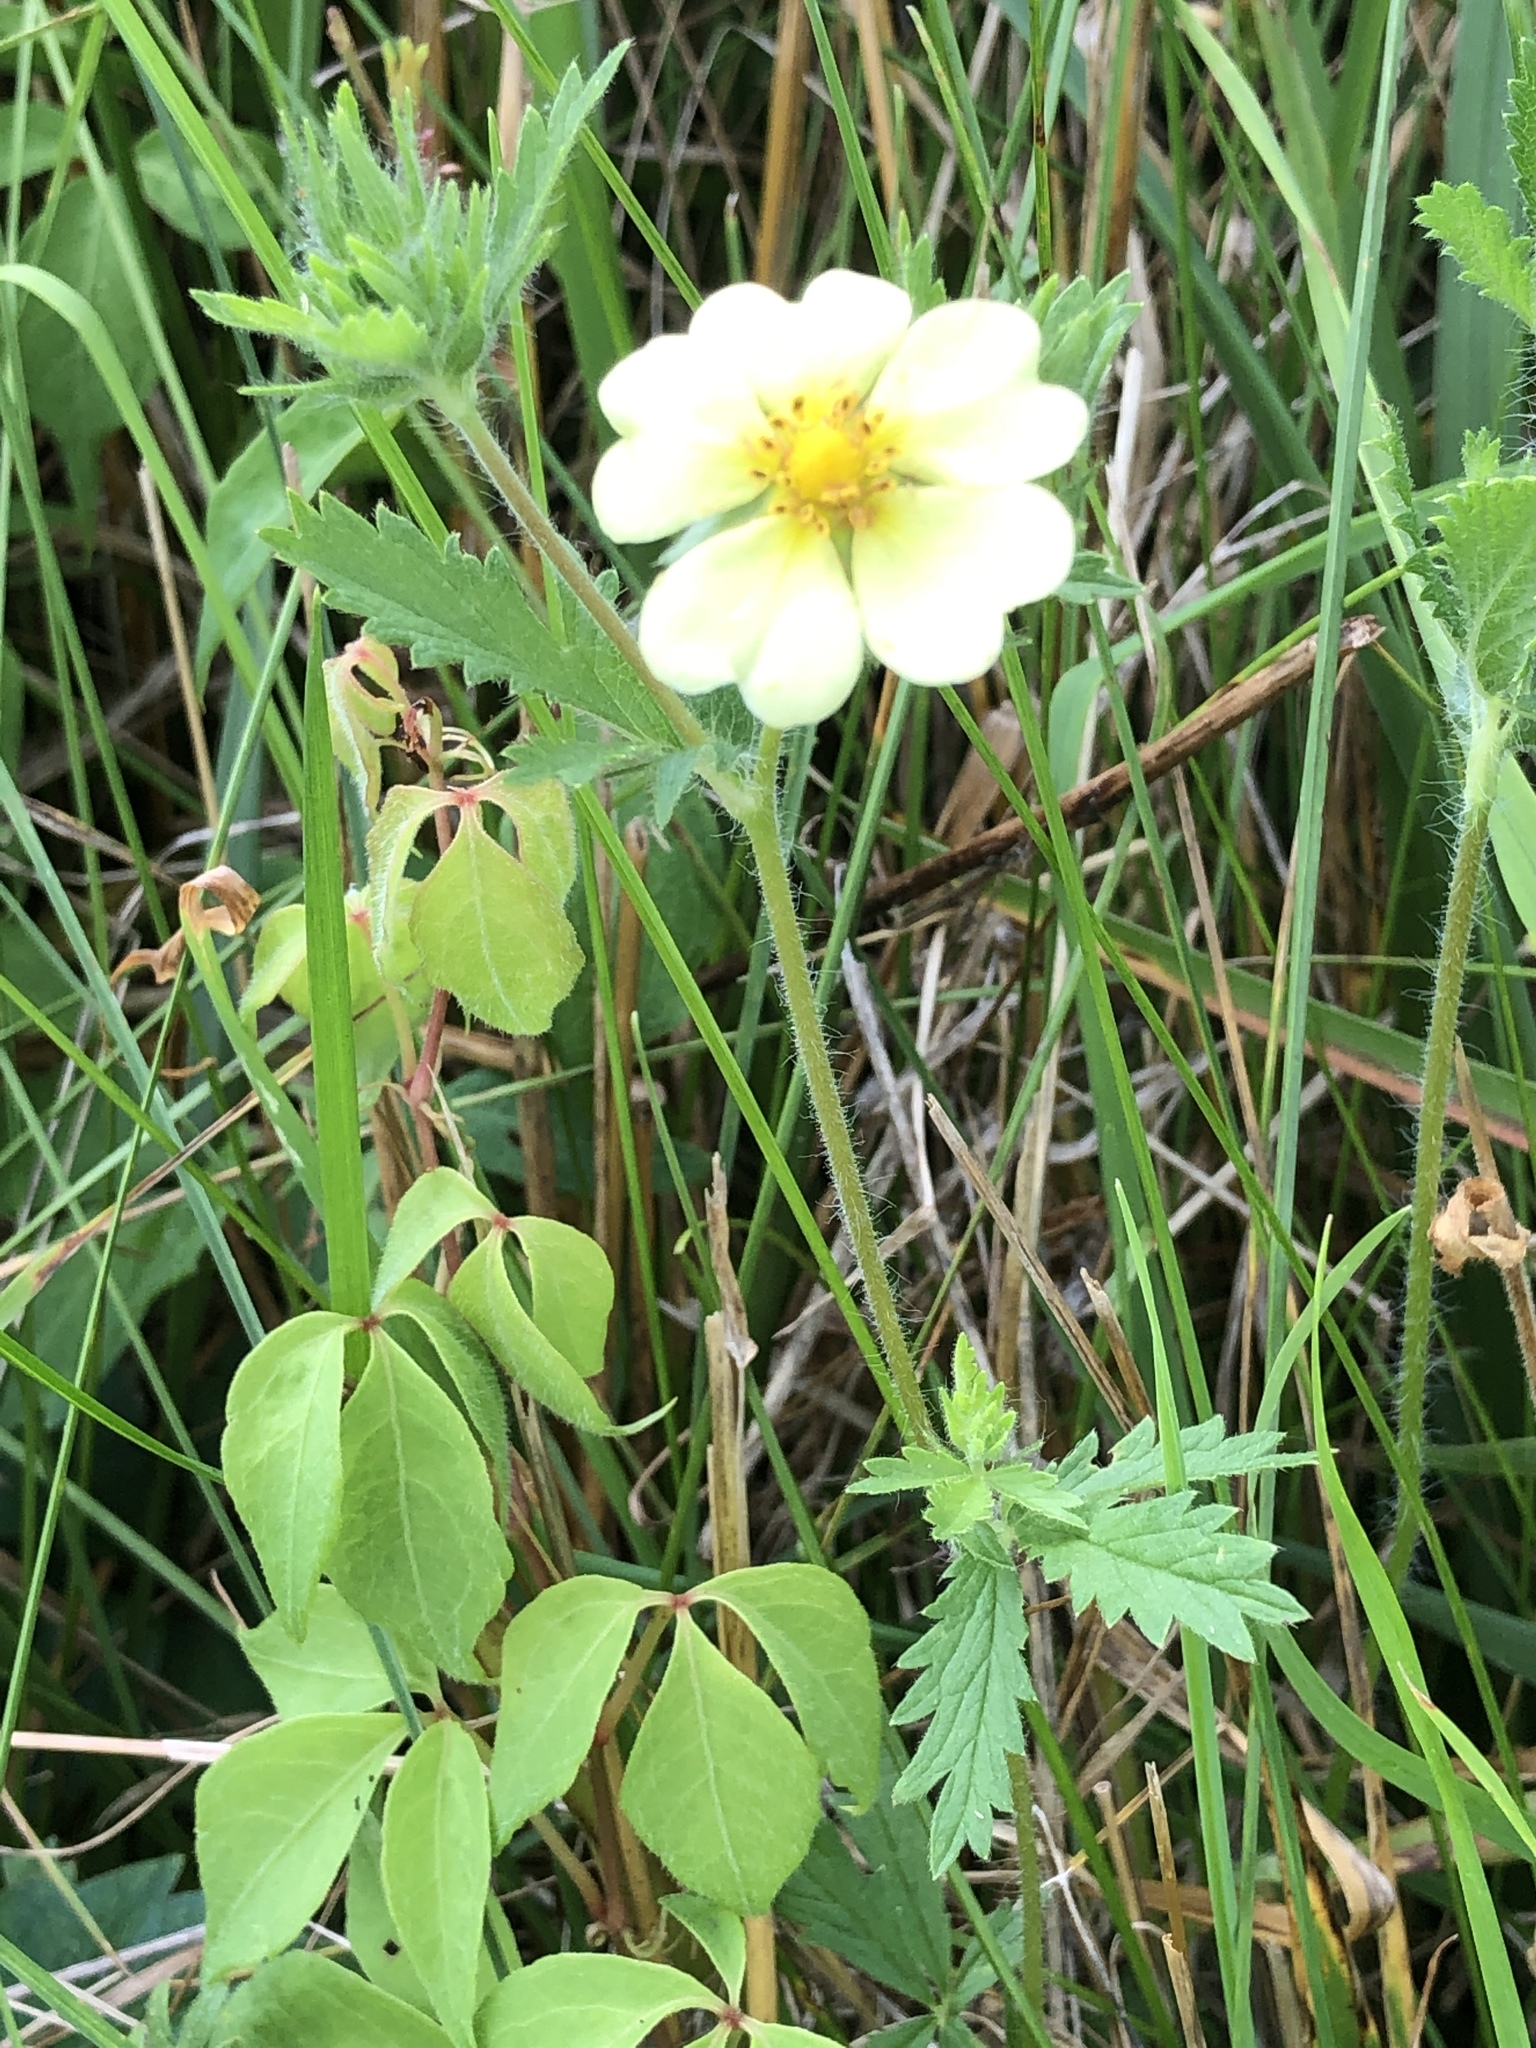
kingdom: Plantae
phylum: Tracheophyta
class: Magnoliopsida
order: Rosales
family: Rosaceae
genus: Potentilla
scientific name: Potentilla recta
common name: Sulphur cinquefoil
